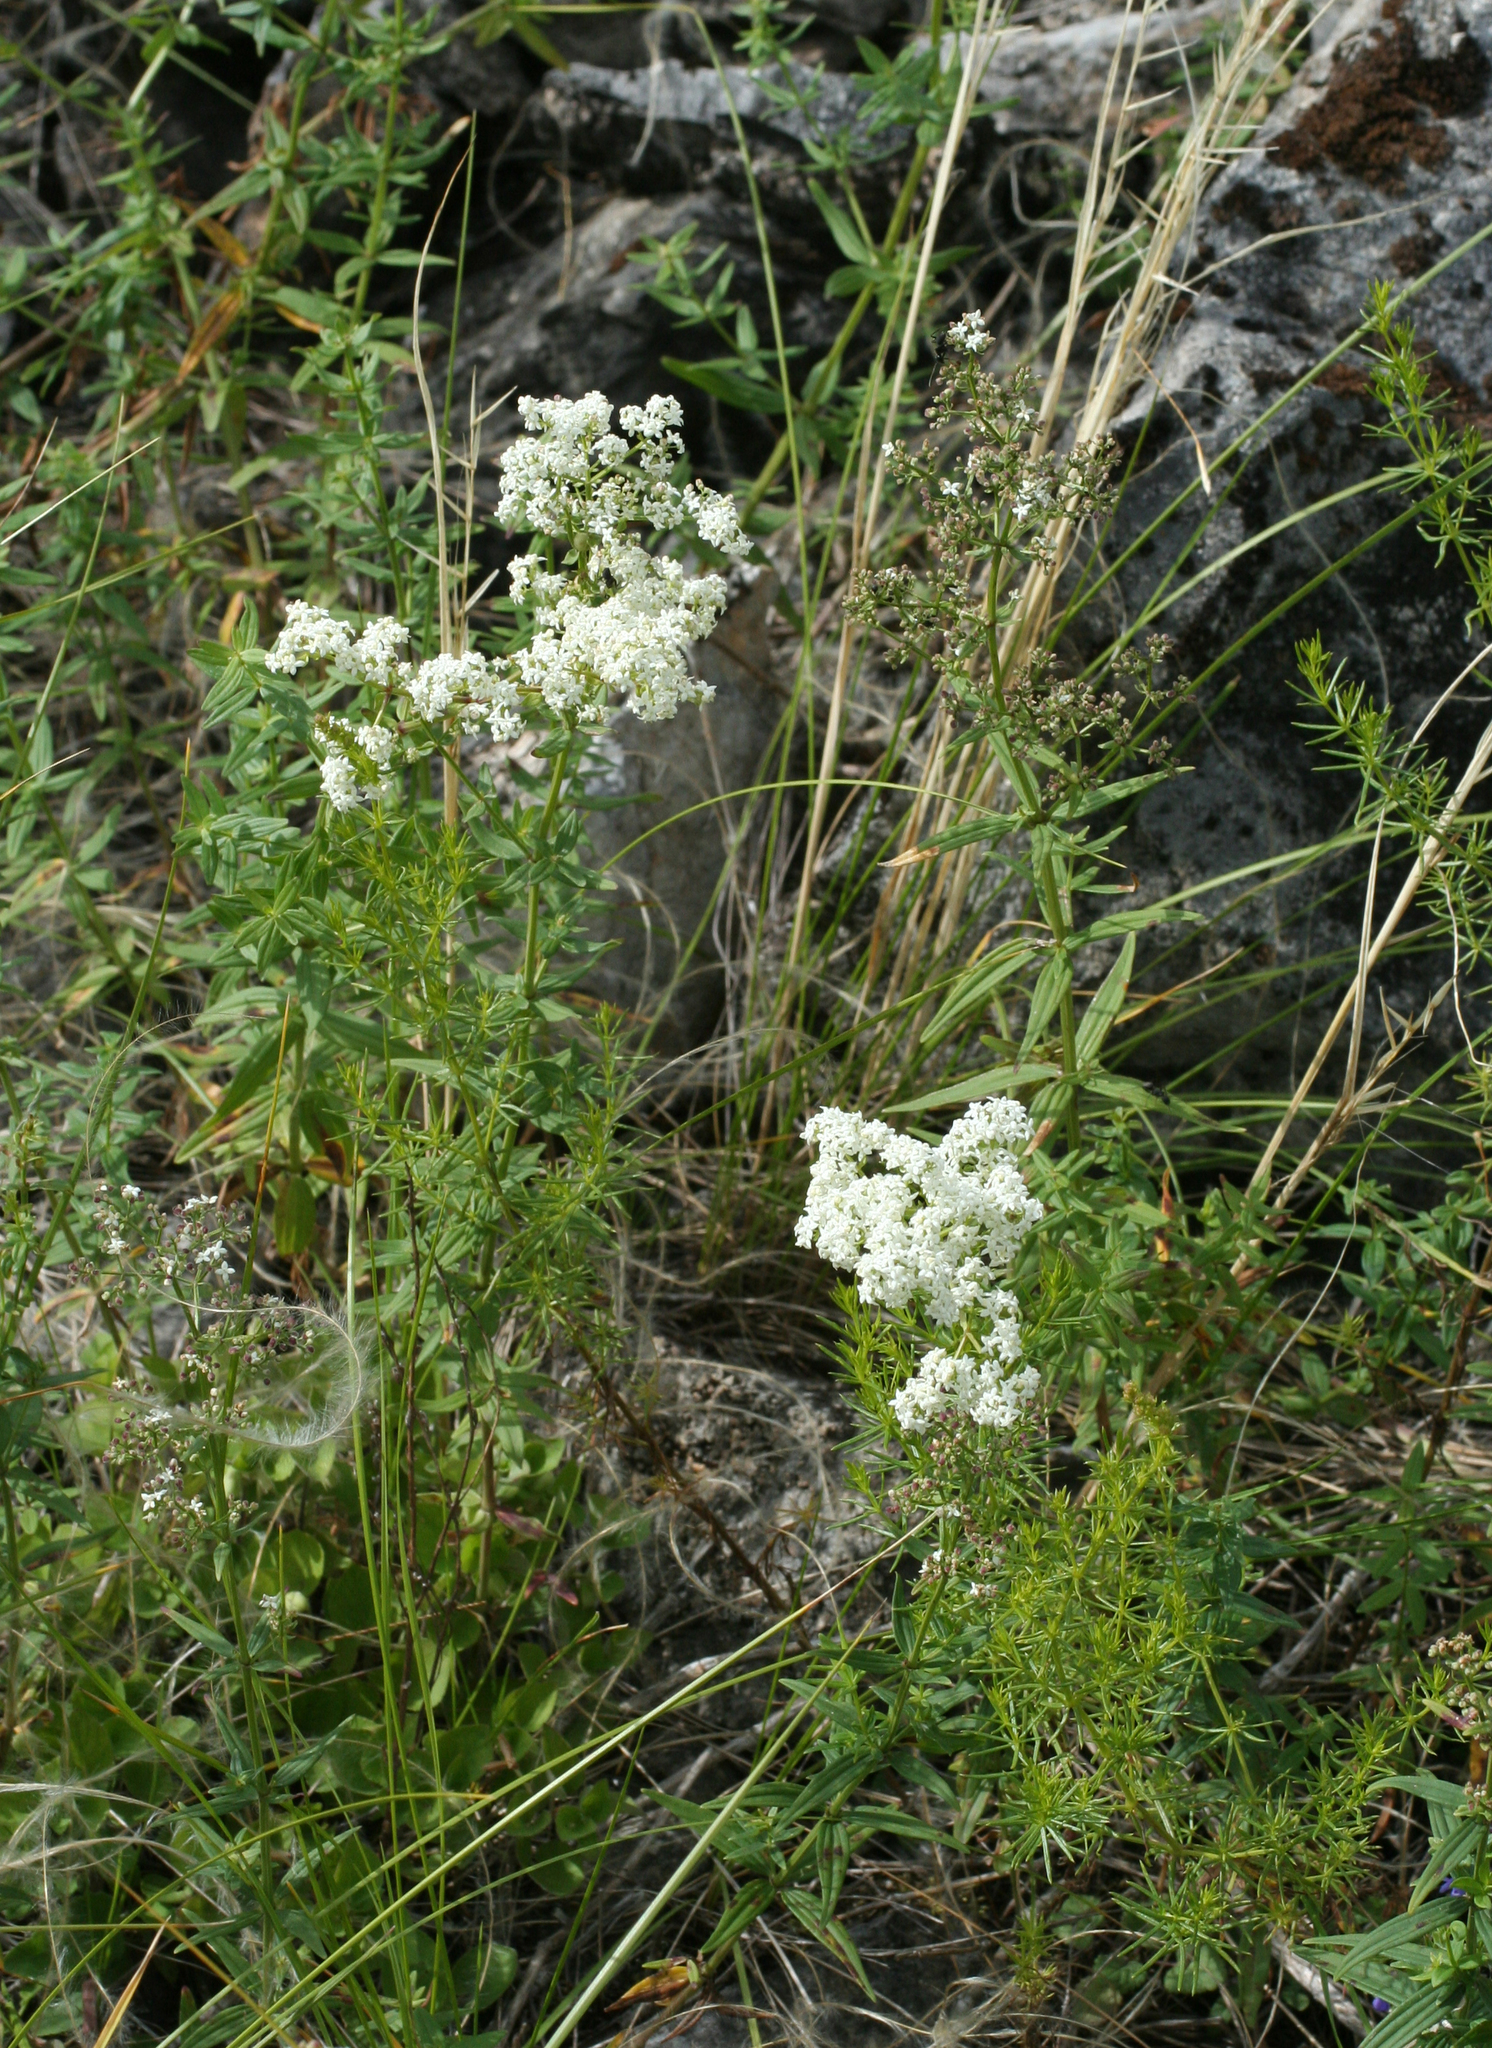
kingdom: Plantae
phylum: Tracheophyta
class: Magnoliopsida
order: Gentianales
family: Rubiaceae
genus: Galium
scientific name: Galium boreale
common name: Northern bedstraw
